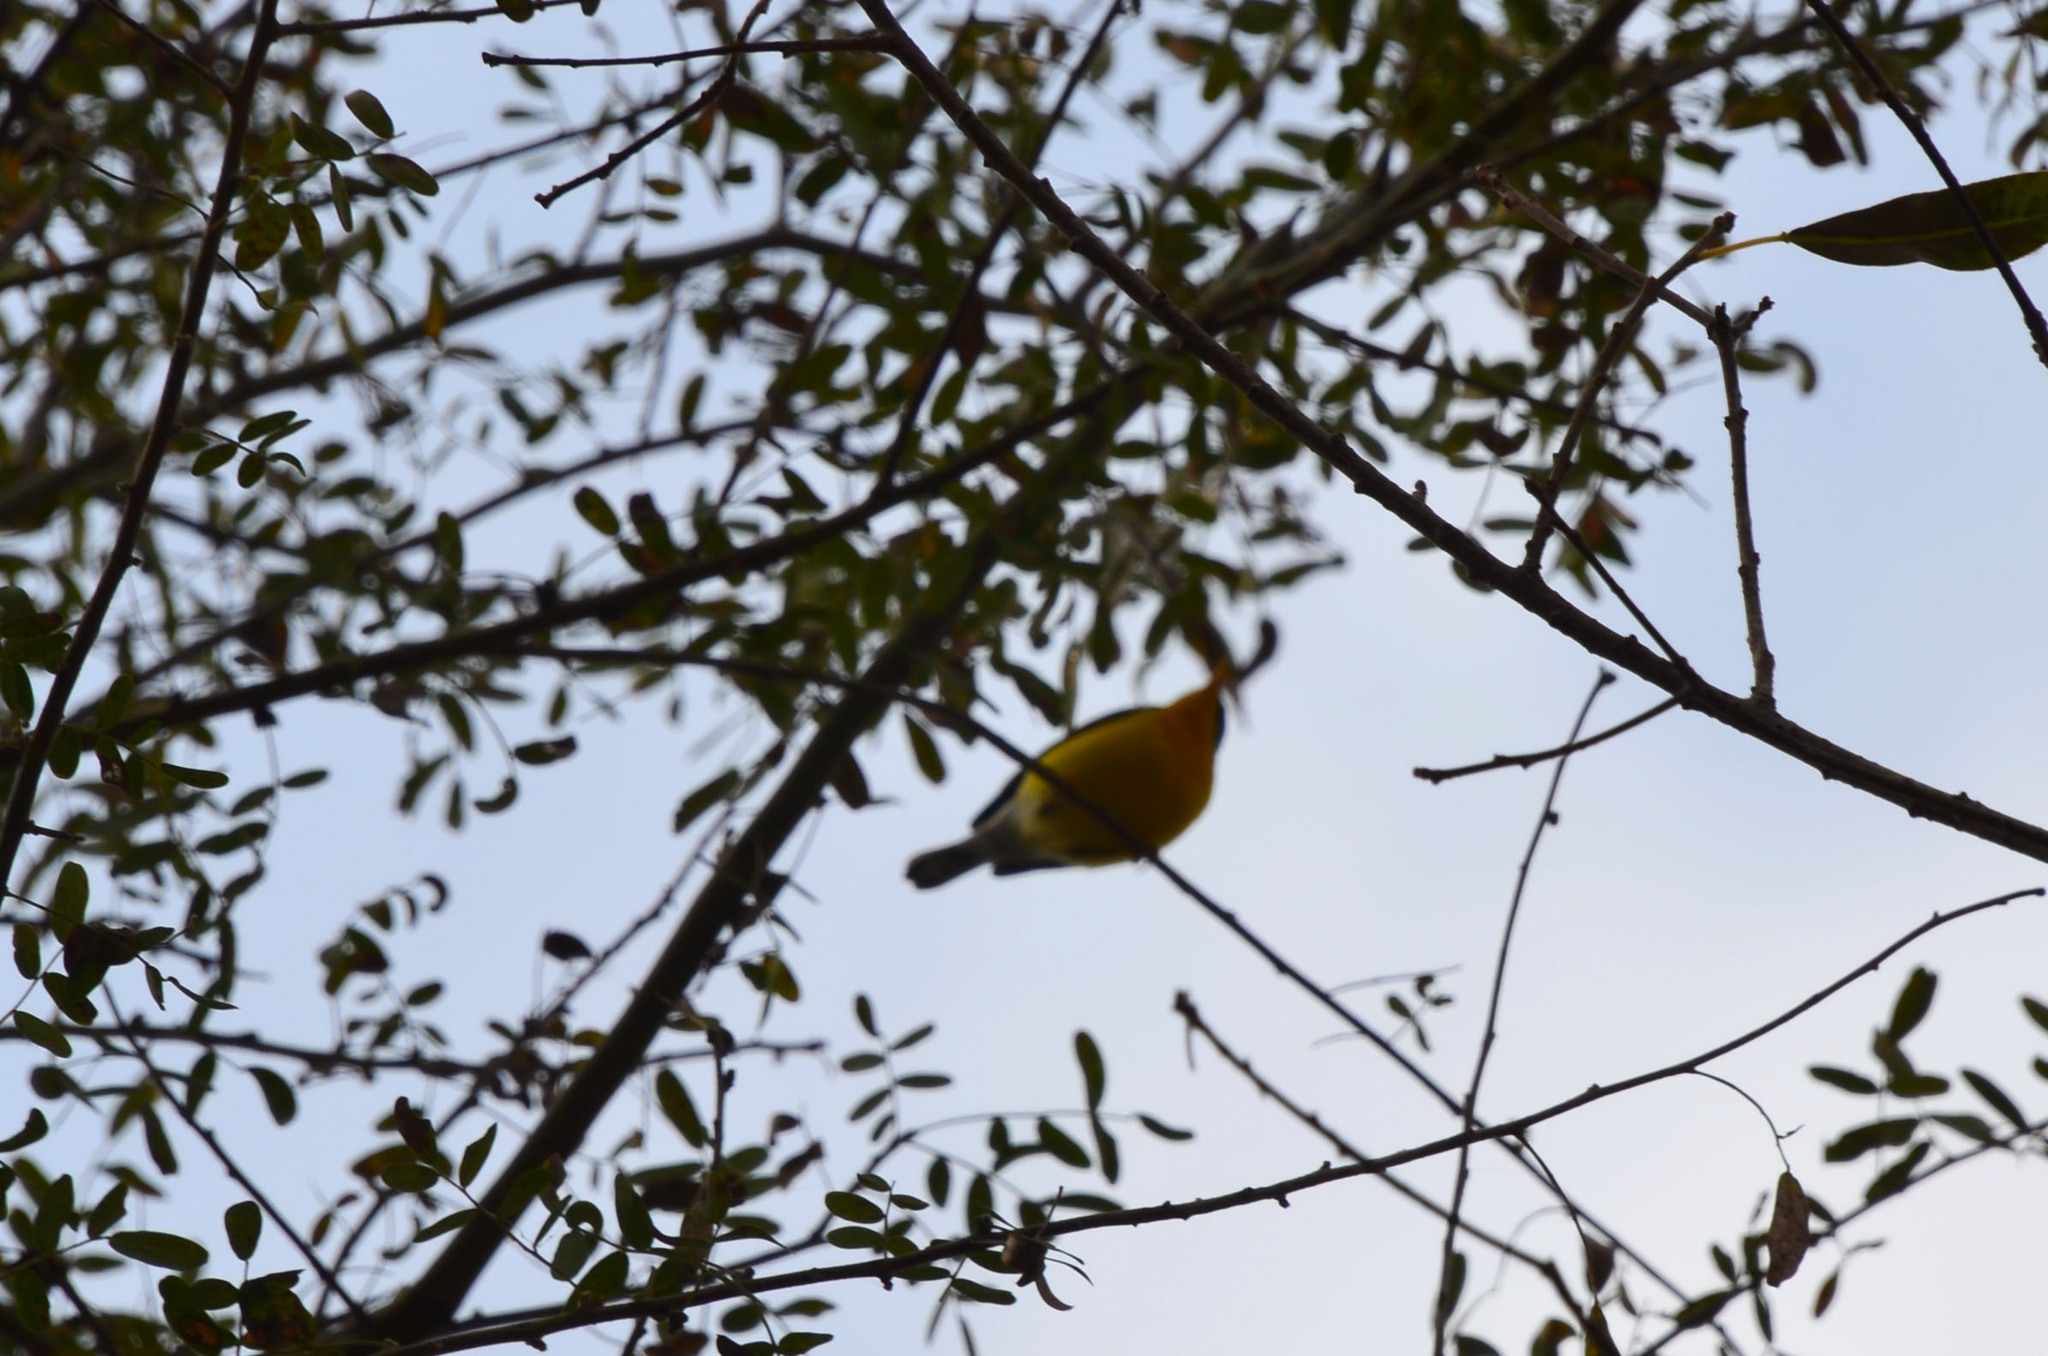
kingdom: Animalia
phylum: Chordata
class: Aves
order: Passeriformes
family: Parulidae
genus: Setophaga
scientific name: Setophaga pitiayumi
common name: Tropical parula
